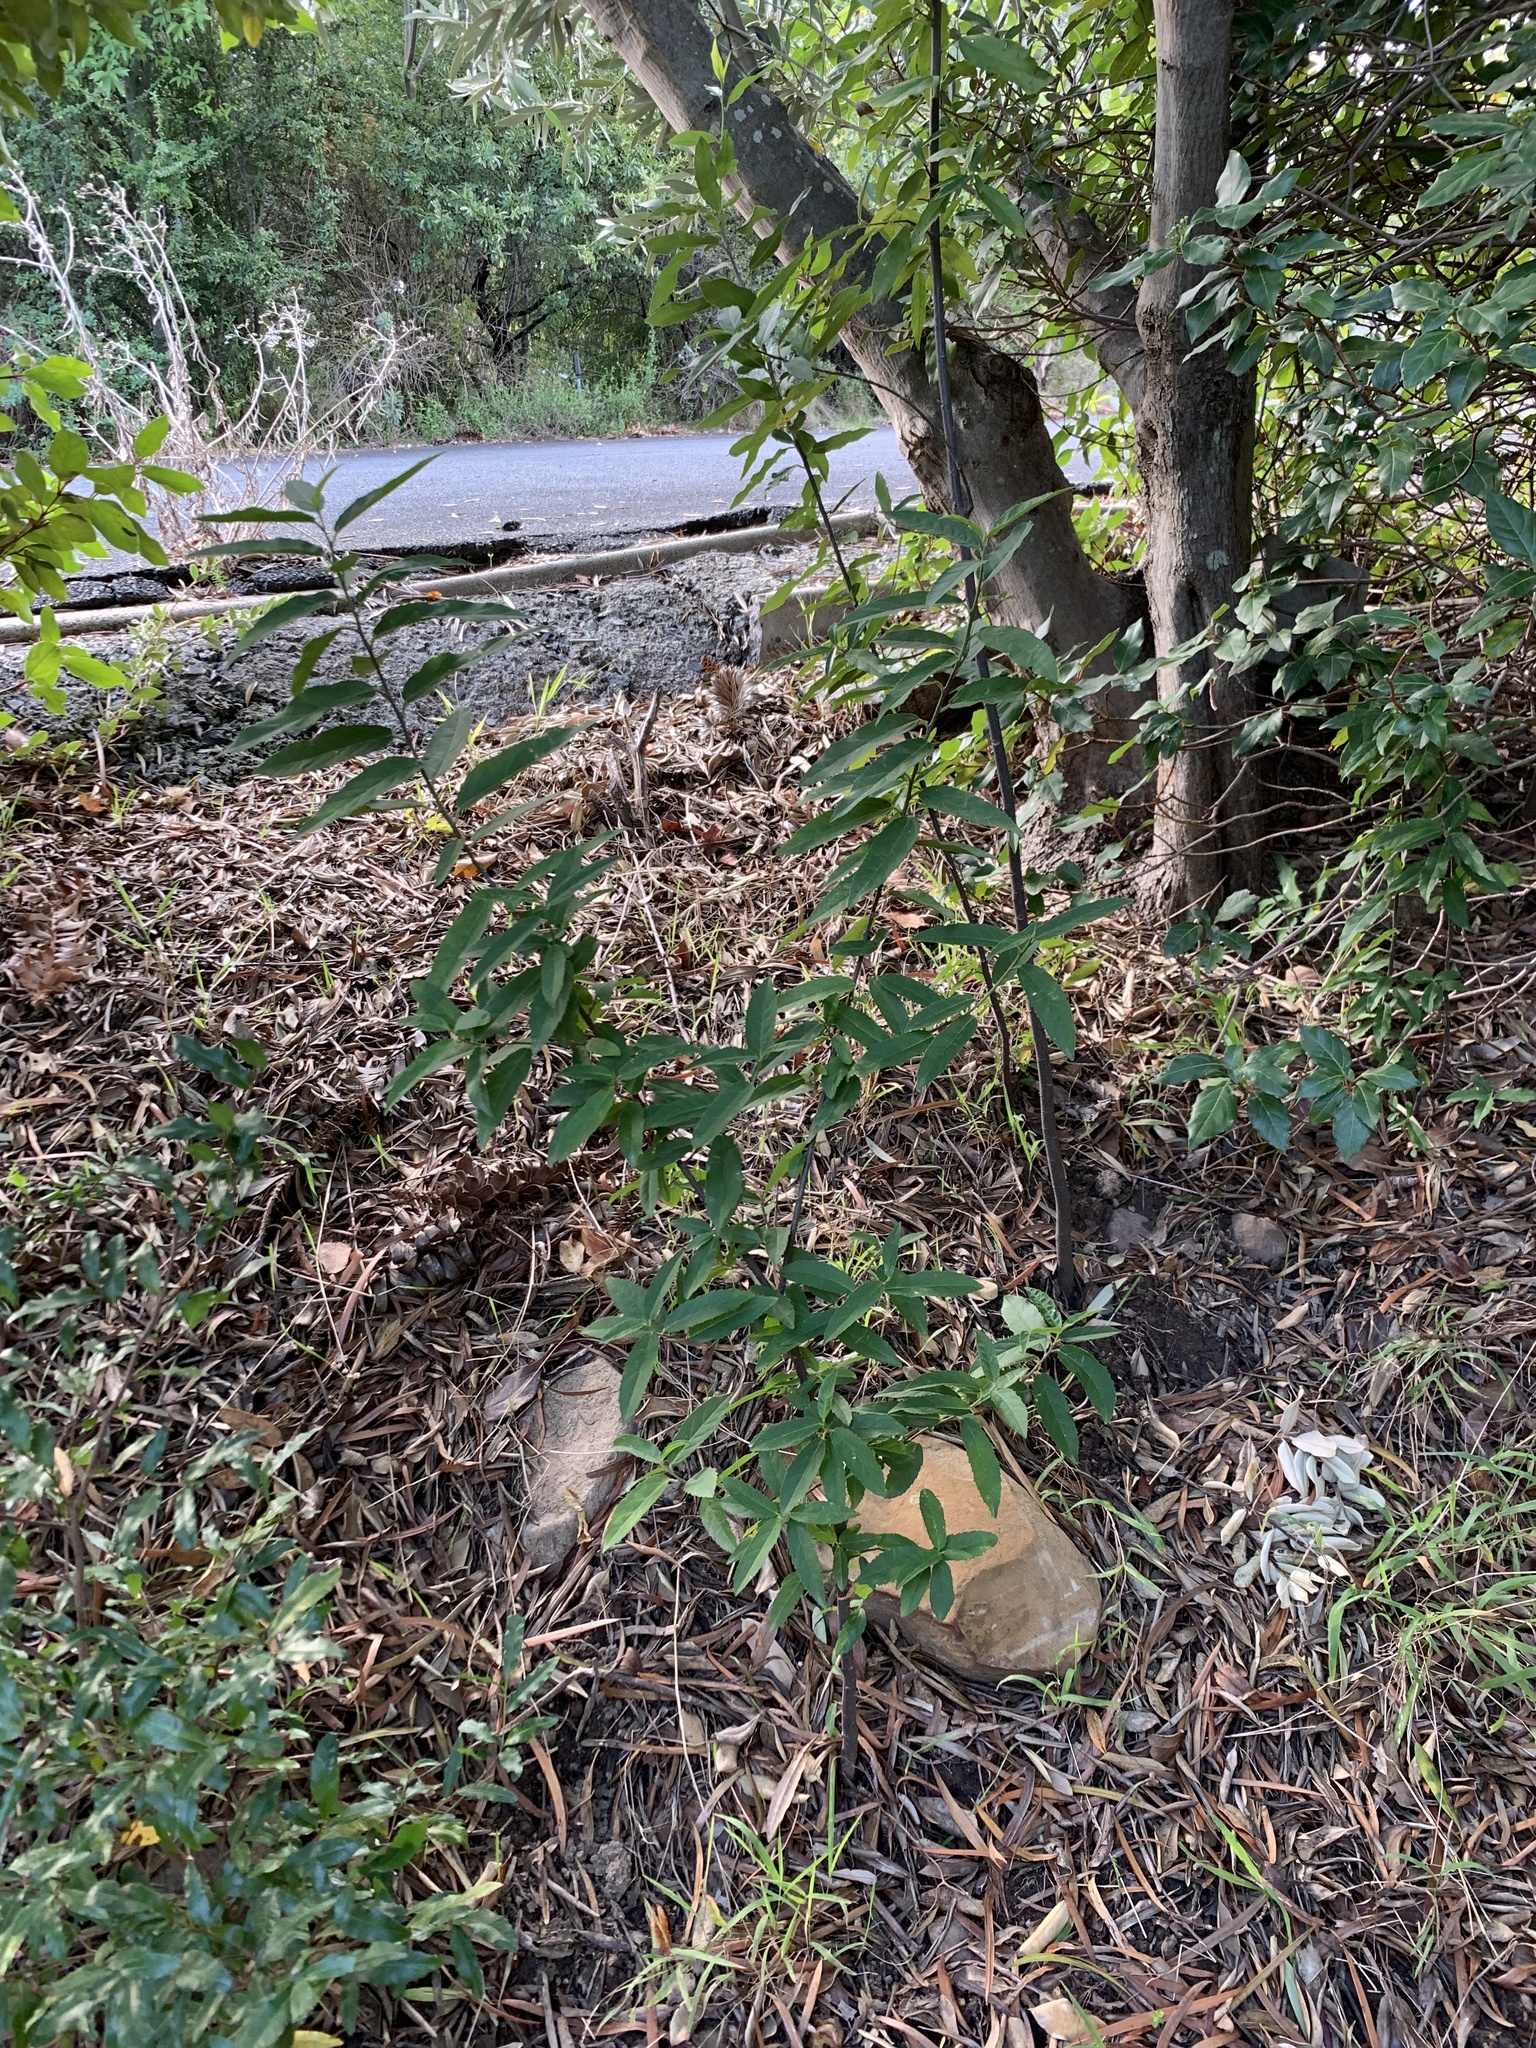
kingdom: Plantae
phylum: Tracheophyta
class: Magnoliopsida
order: Malpighiales
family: Achariaceae
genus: Kiggelaria
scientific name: Kiggelaria africana
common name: Wild peach
